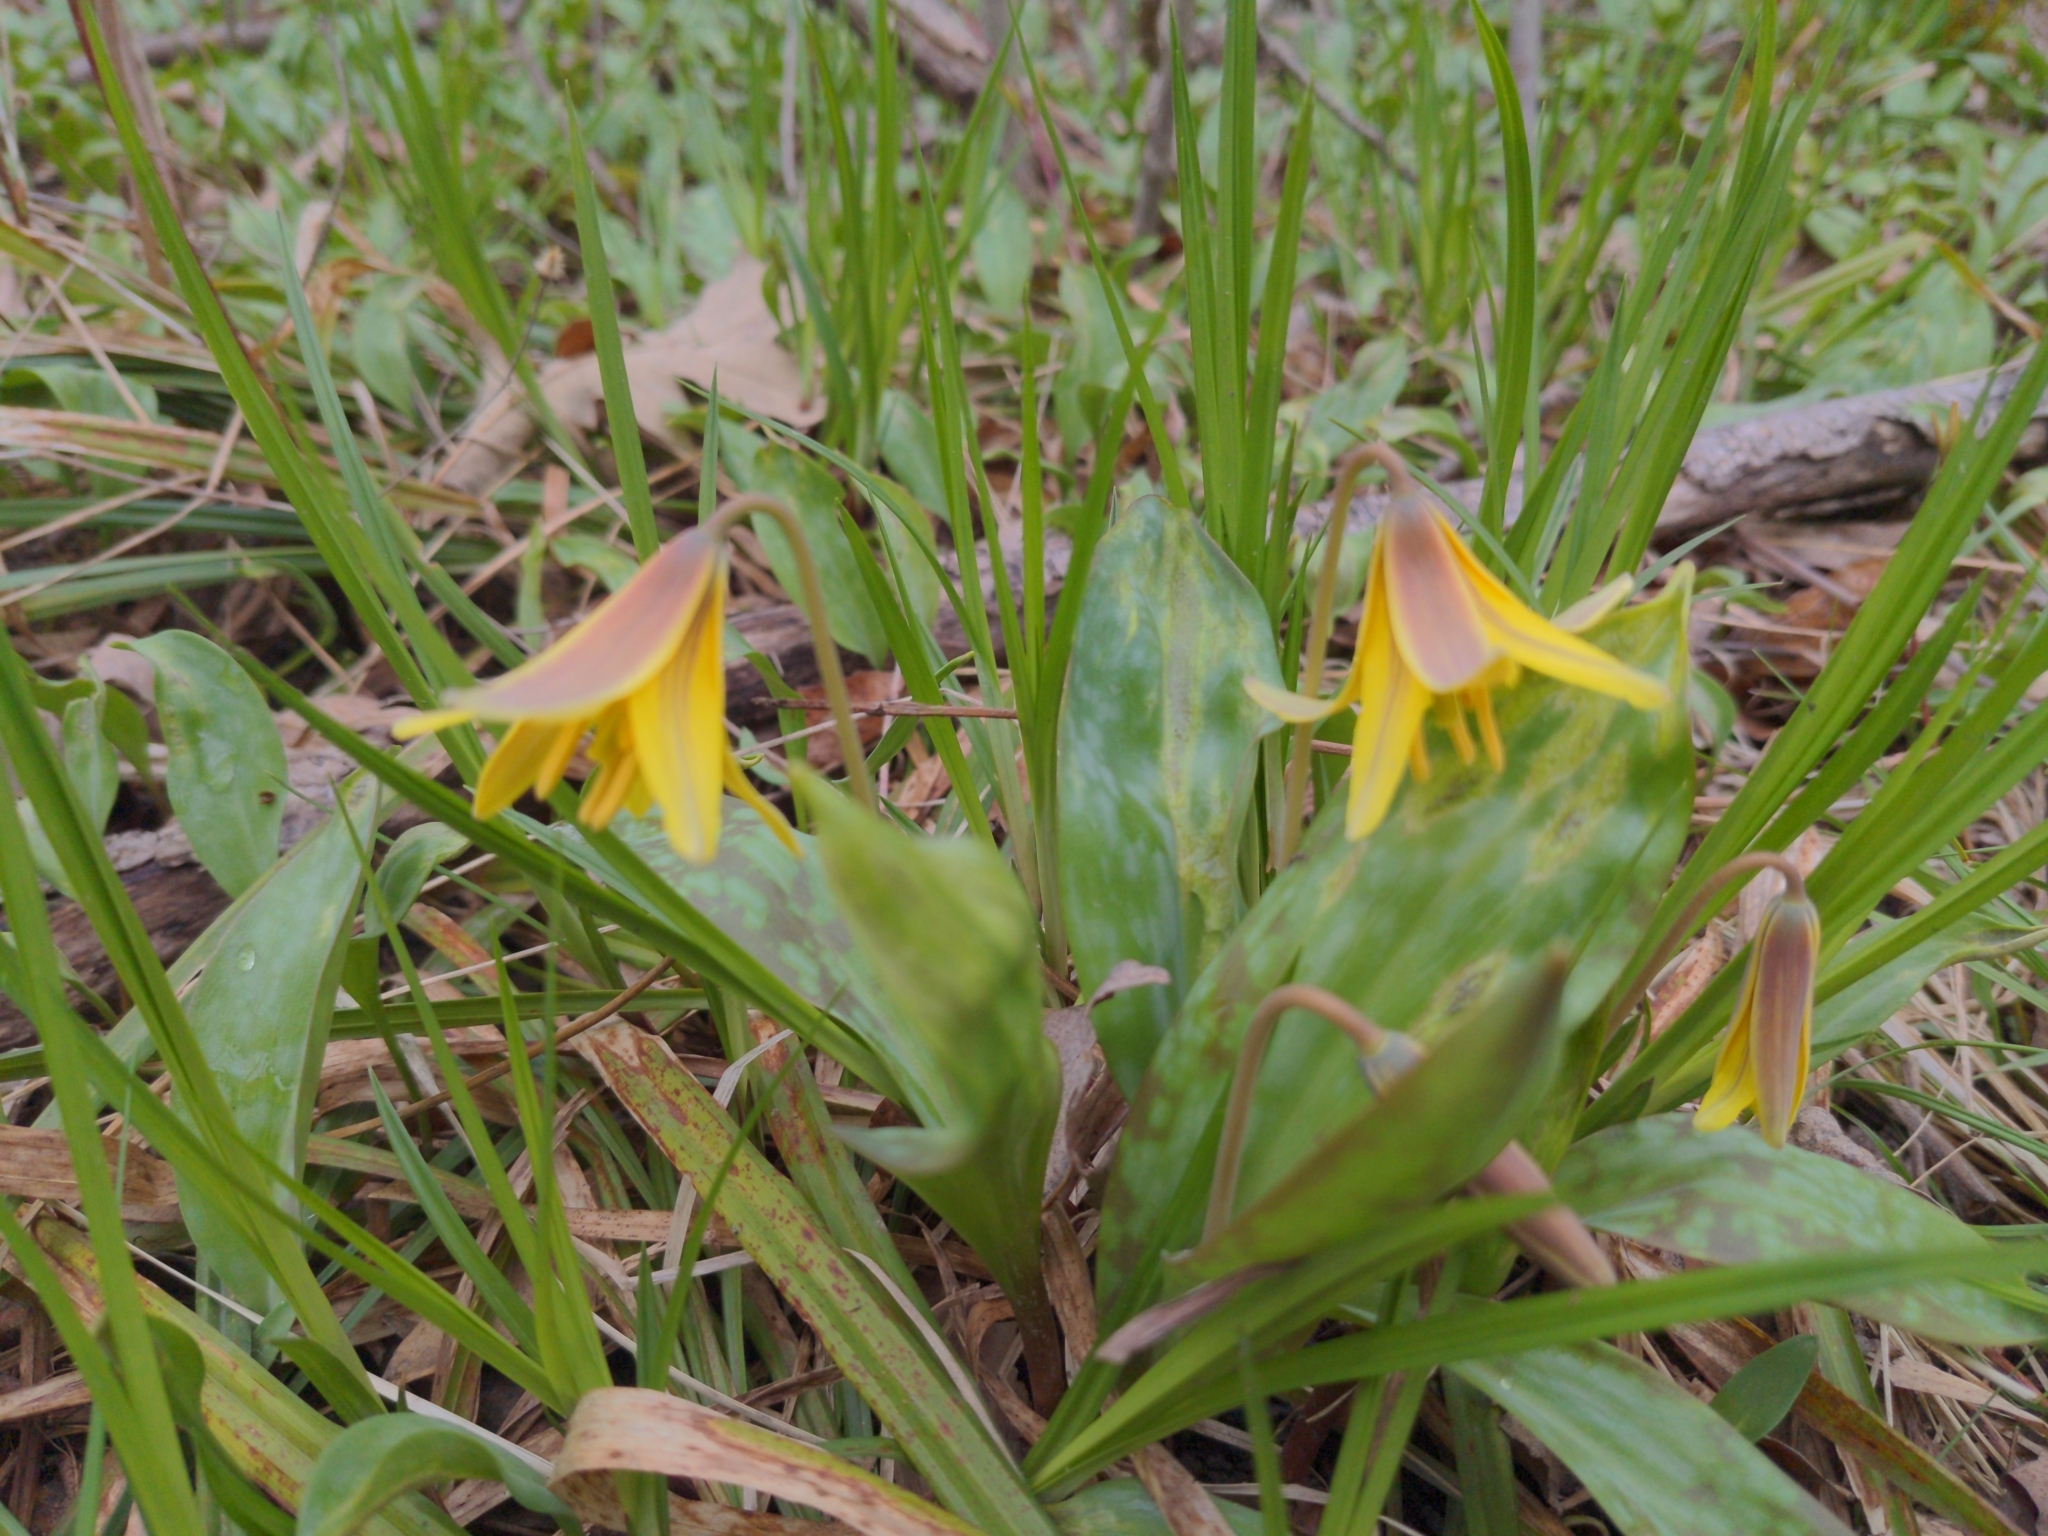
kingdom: Plantae
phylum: Tracheophyta
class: Liliopsida
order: Liliales
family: Liliaceae
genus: Erythronium
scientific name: Erythronium americanum
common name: Yellow adder's-tongue
